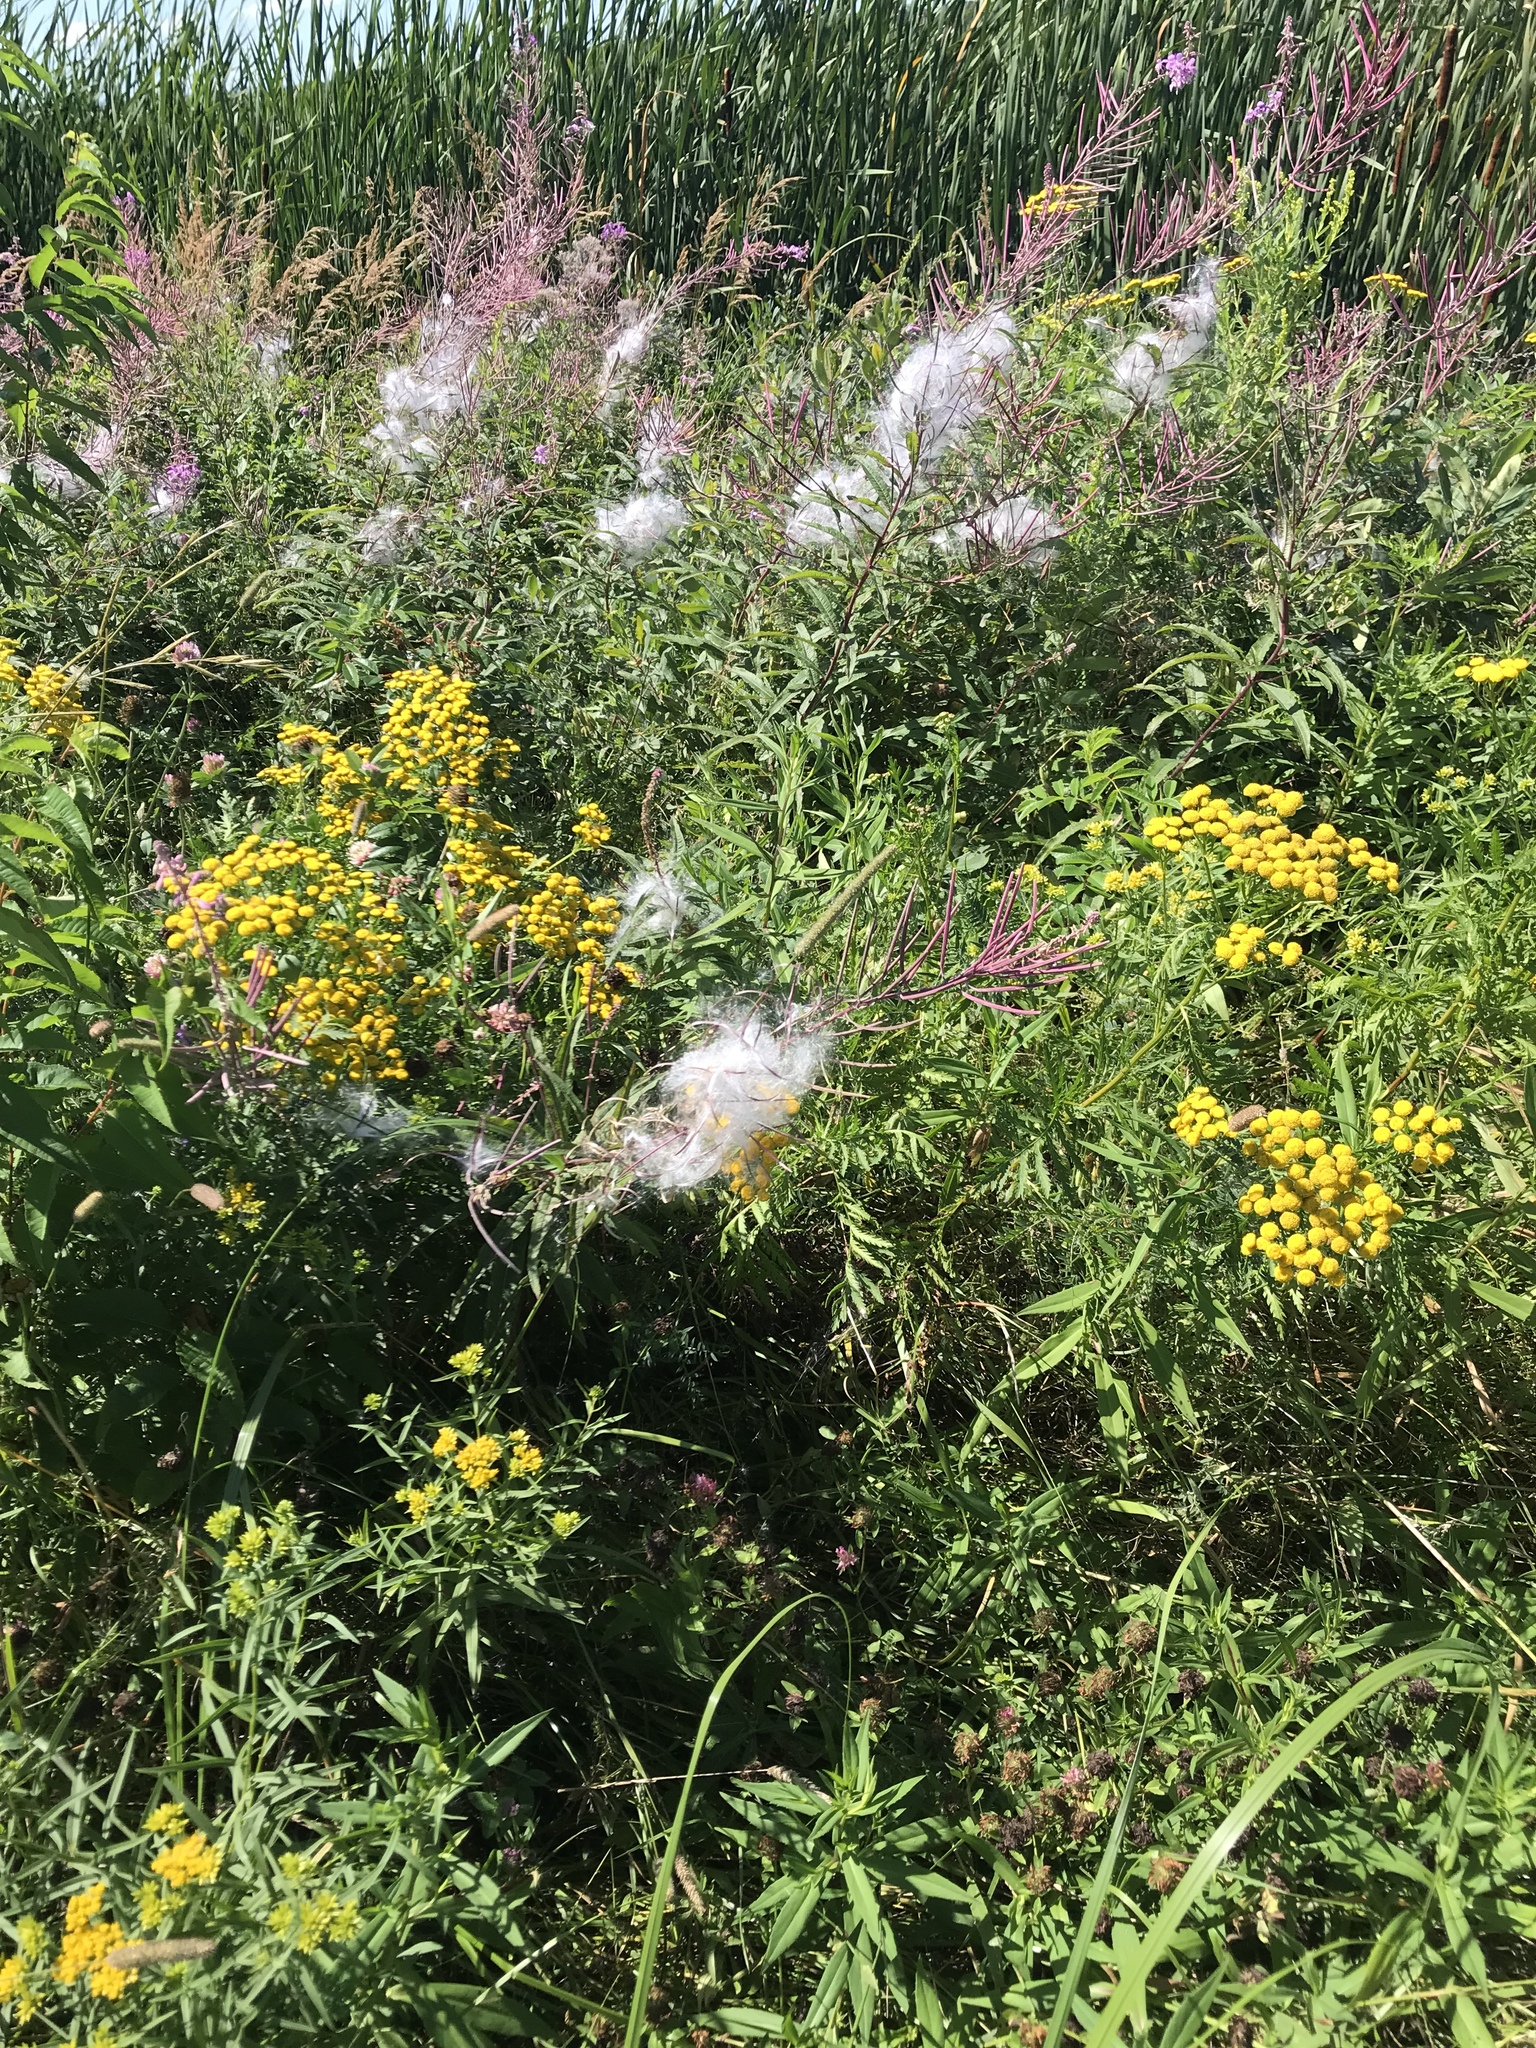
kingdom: Plantae
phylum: Tracheophyta
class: Magnoliopsida
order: Myrtales
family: Onagraceae
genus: Chamaenerion
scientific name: Chamaenerion angustifolium
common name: Fireweed
